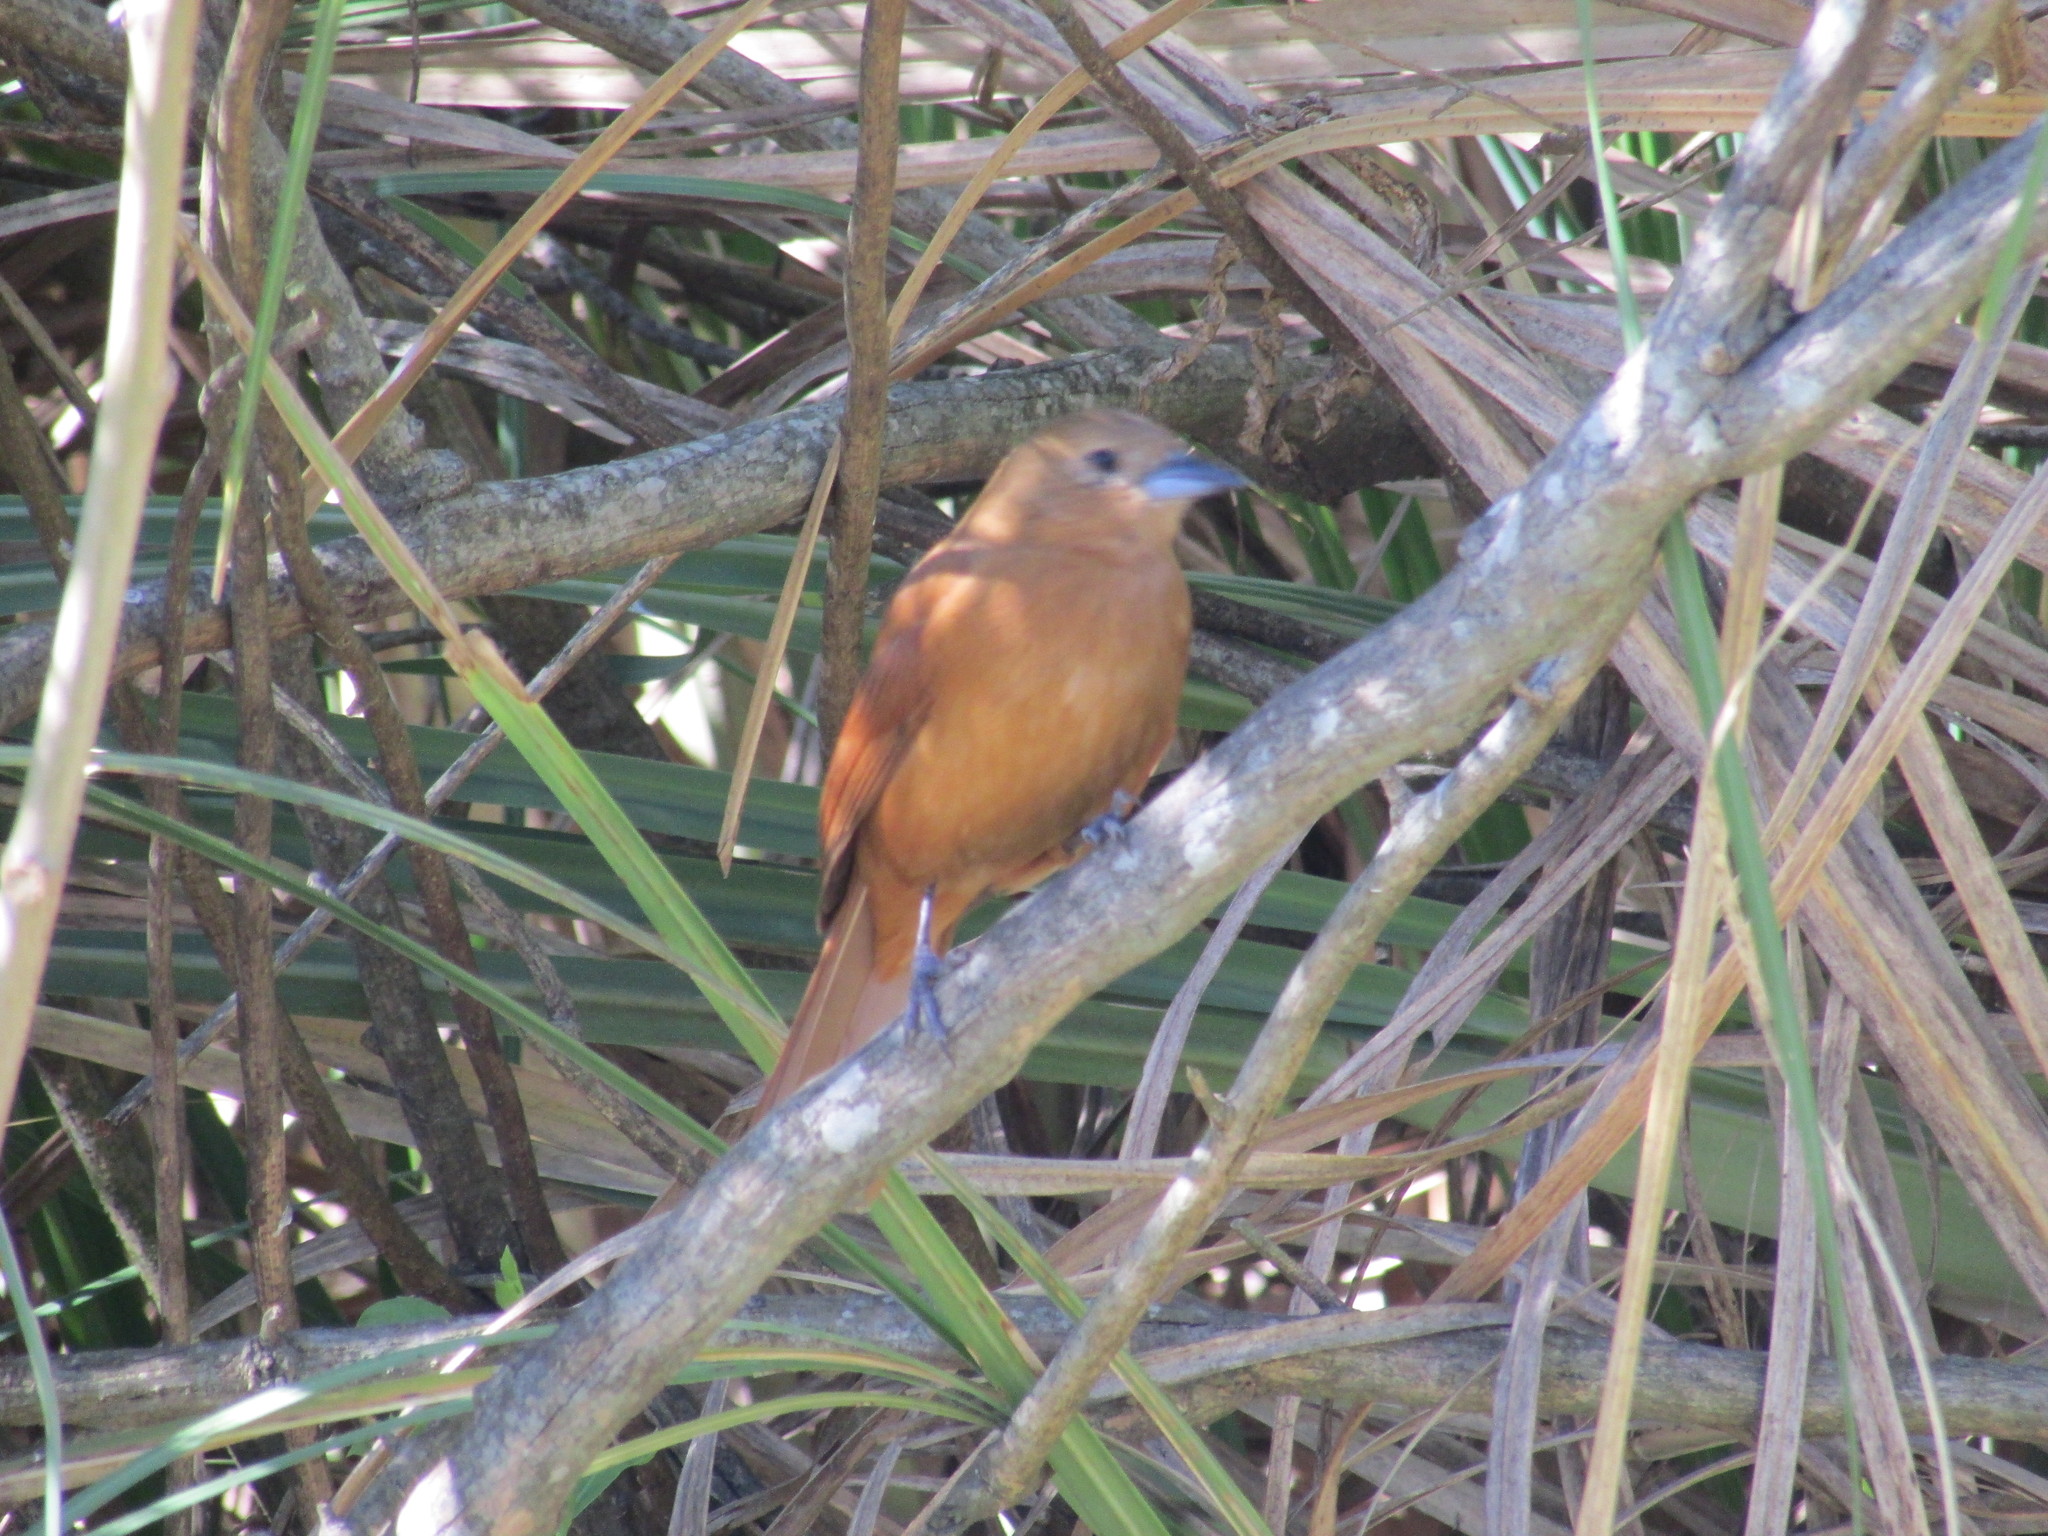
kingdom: Animalia
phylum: Chordata
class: Aves
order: Passeriformes
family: Thraupidae
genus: Tachyphonus
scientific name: Tachyphonus rufus
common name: White-lined tanager
